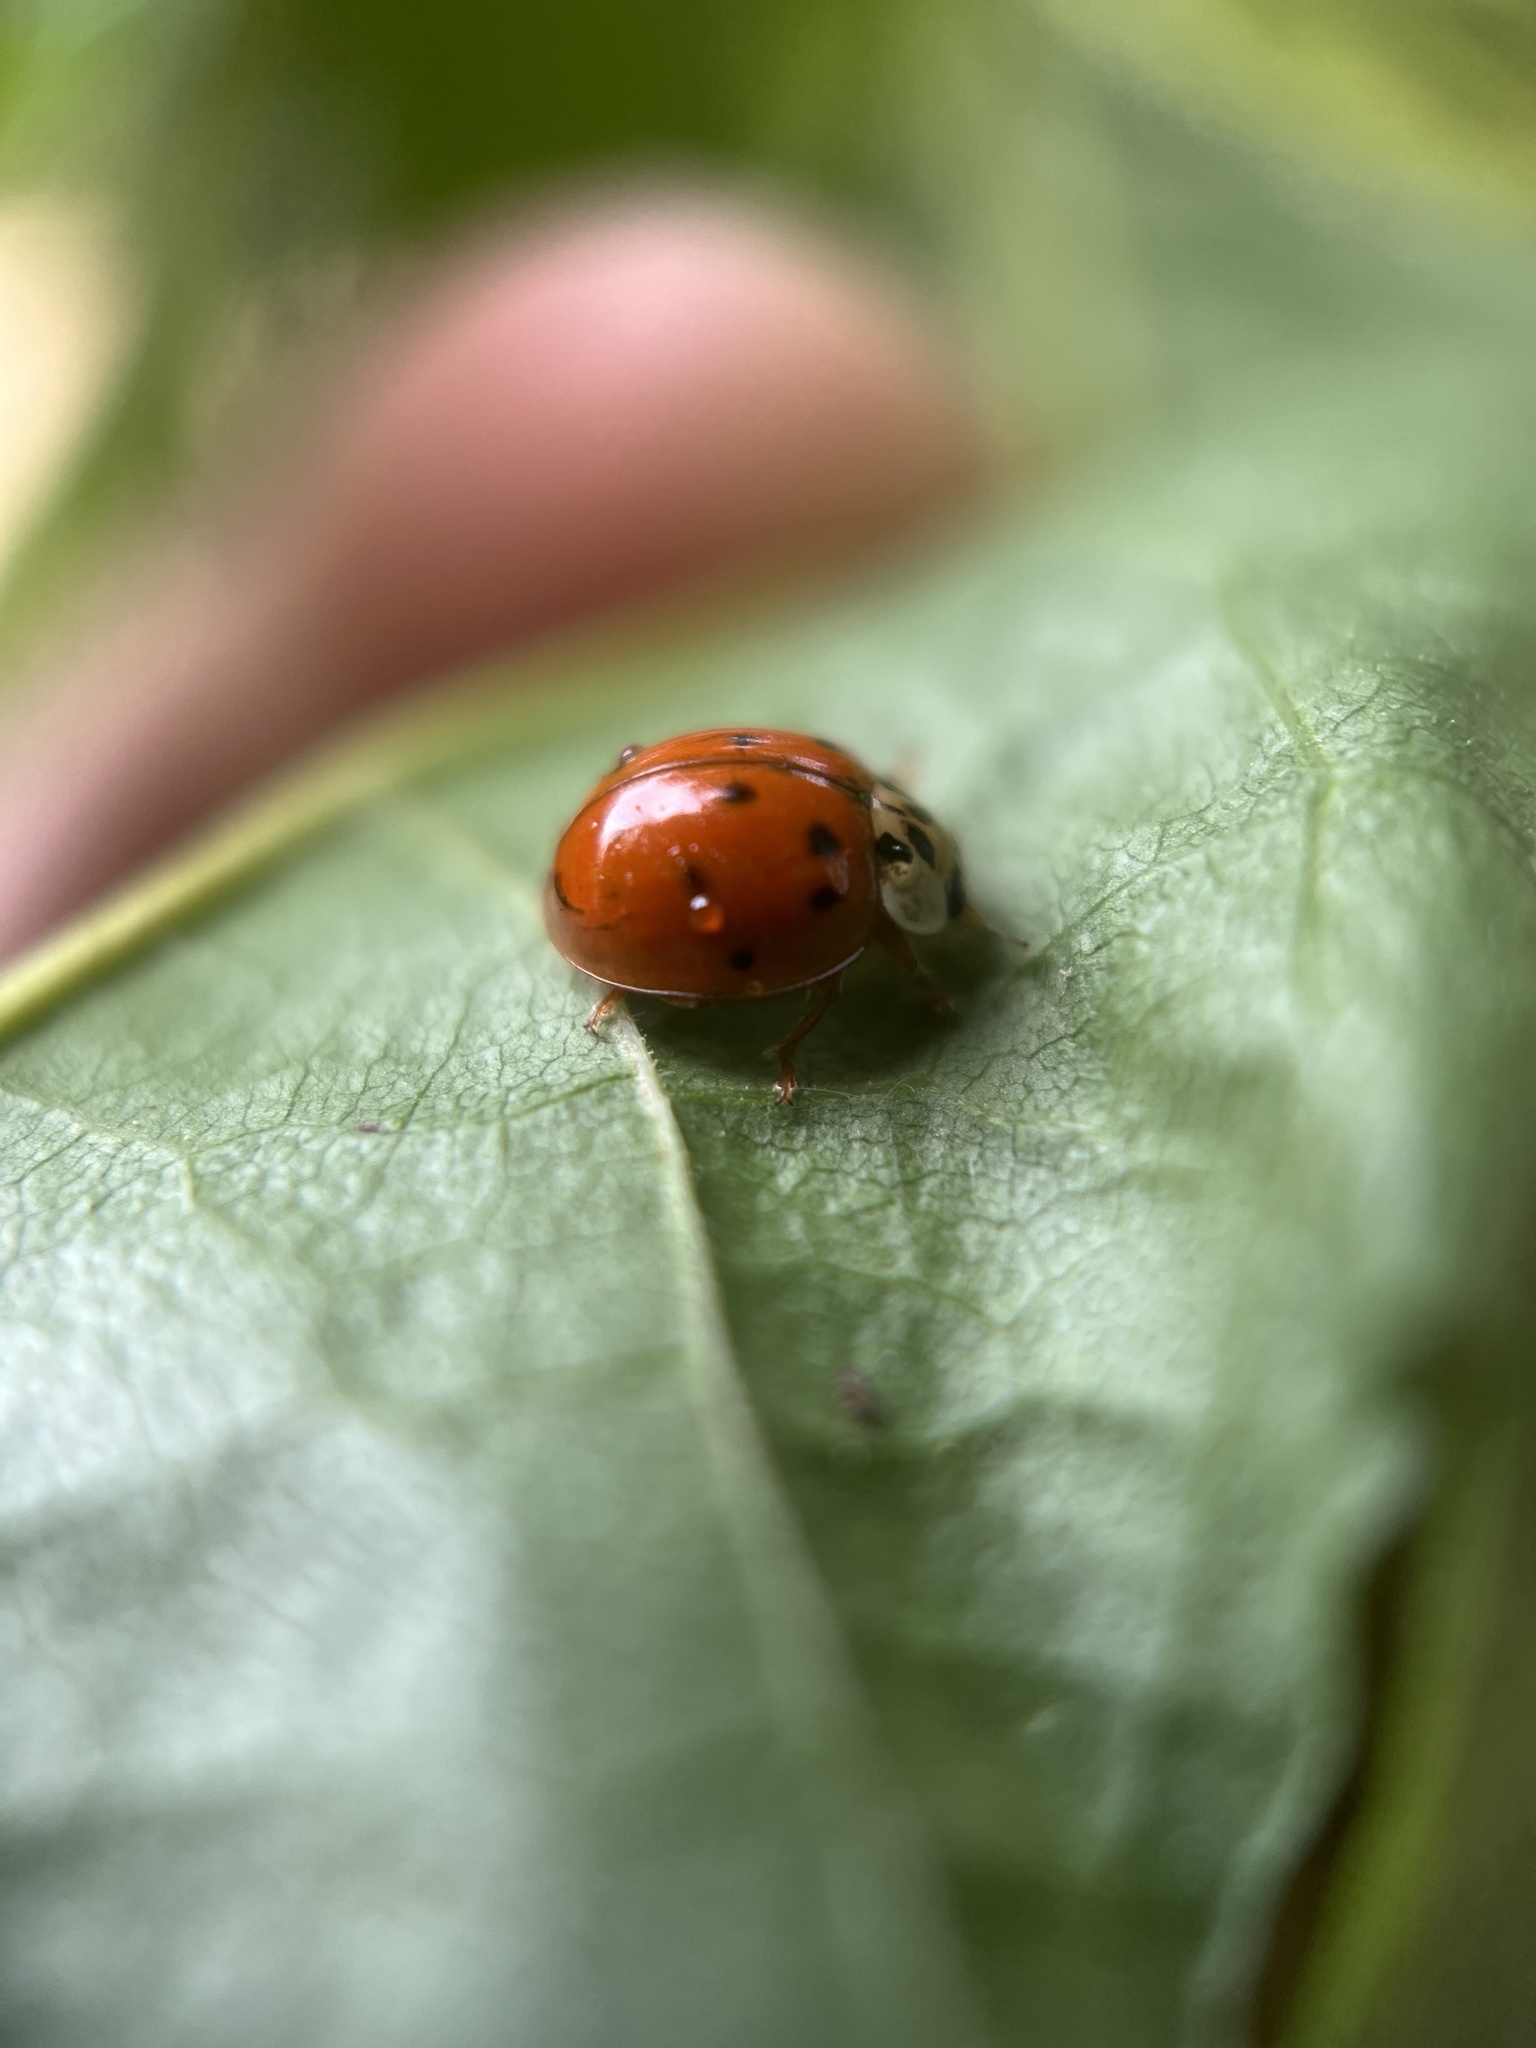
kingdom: Animalia
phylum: Arthropoda
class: Insecta
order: Coleoptera
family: Coccinellidae
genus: Harmonia
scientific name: Harmonia axyridis
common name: Harlequin ladybird
